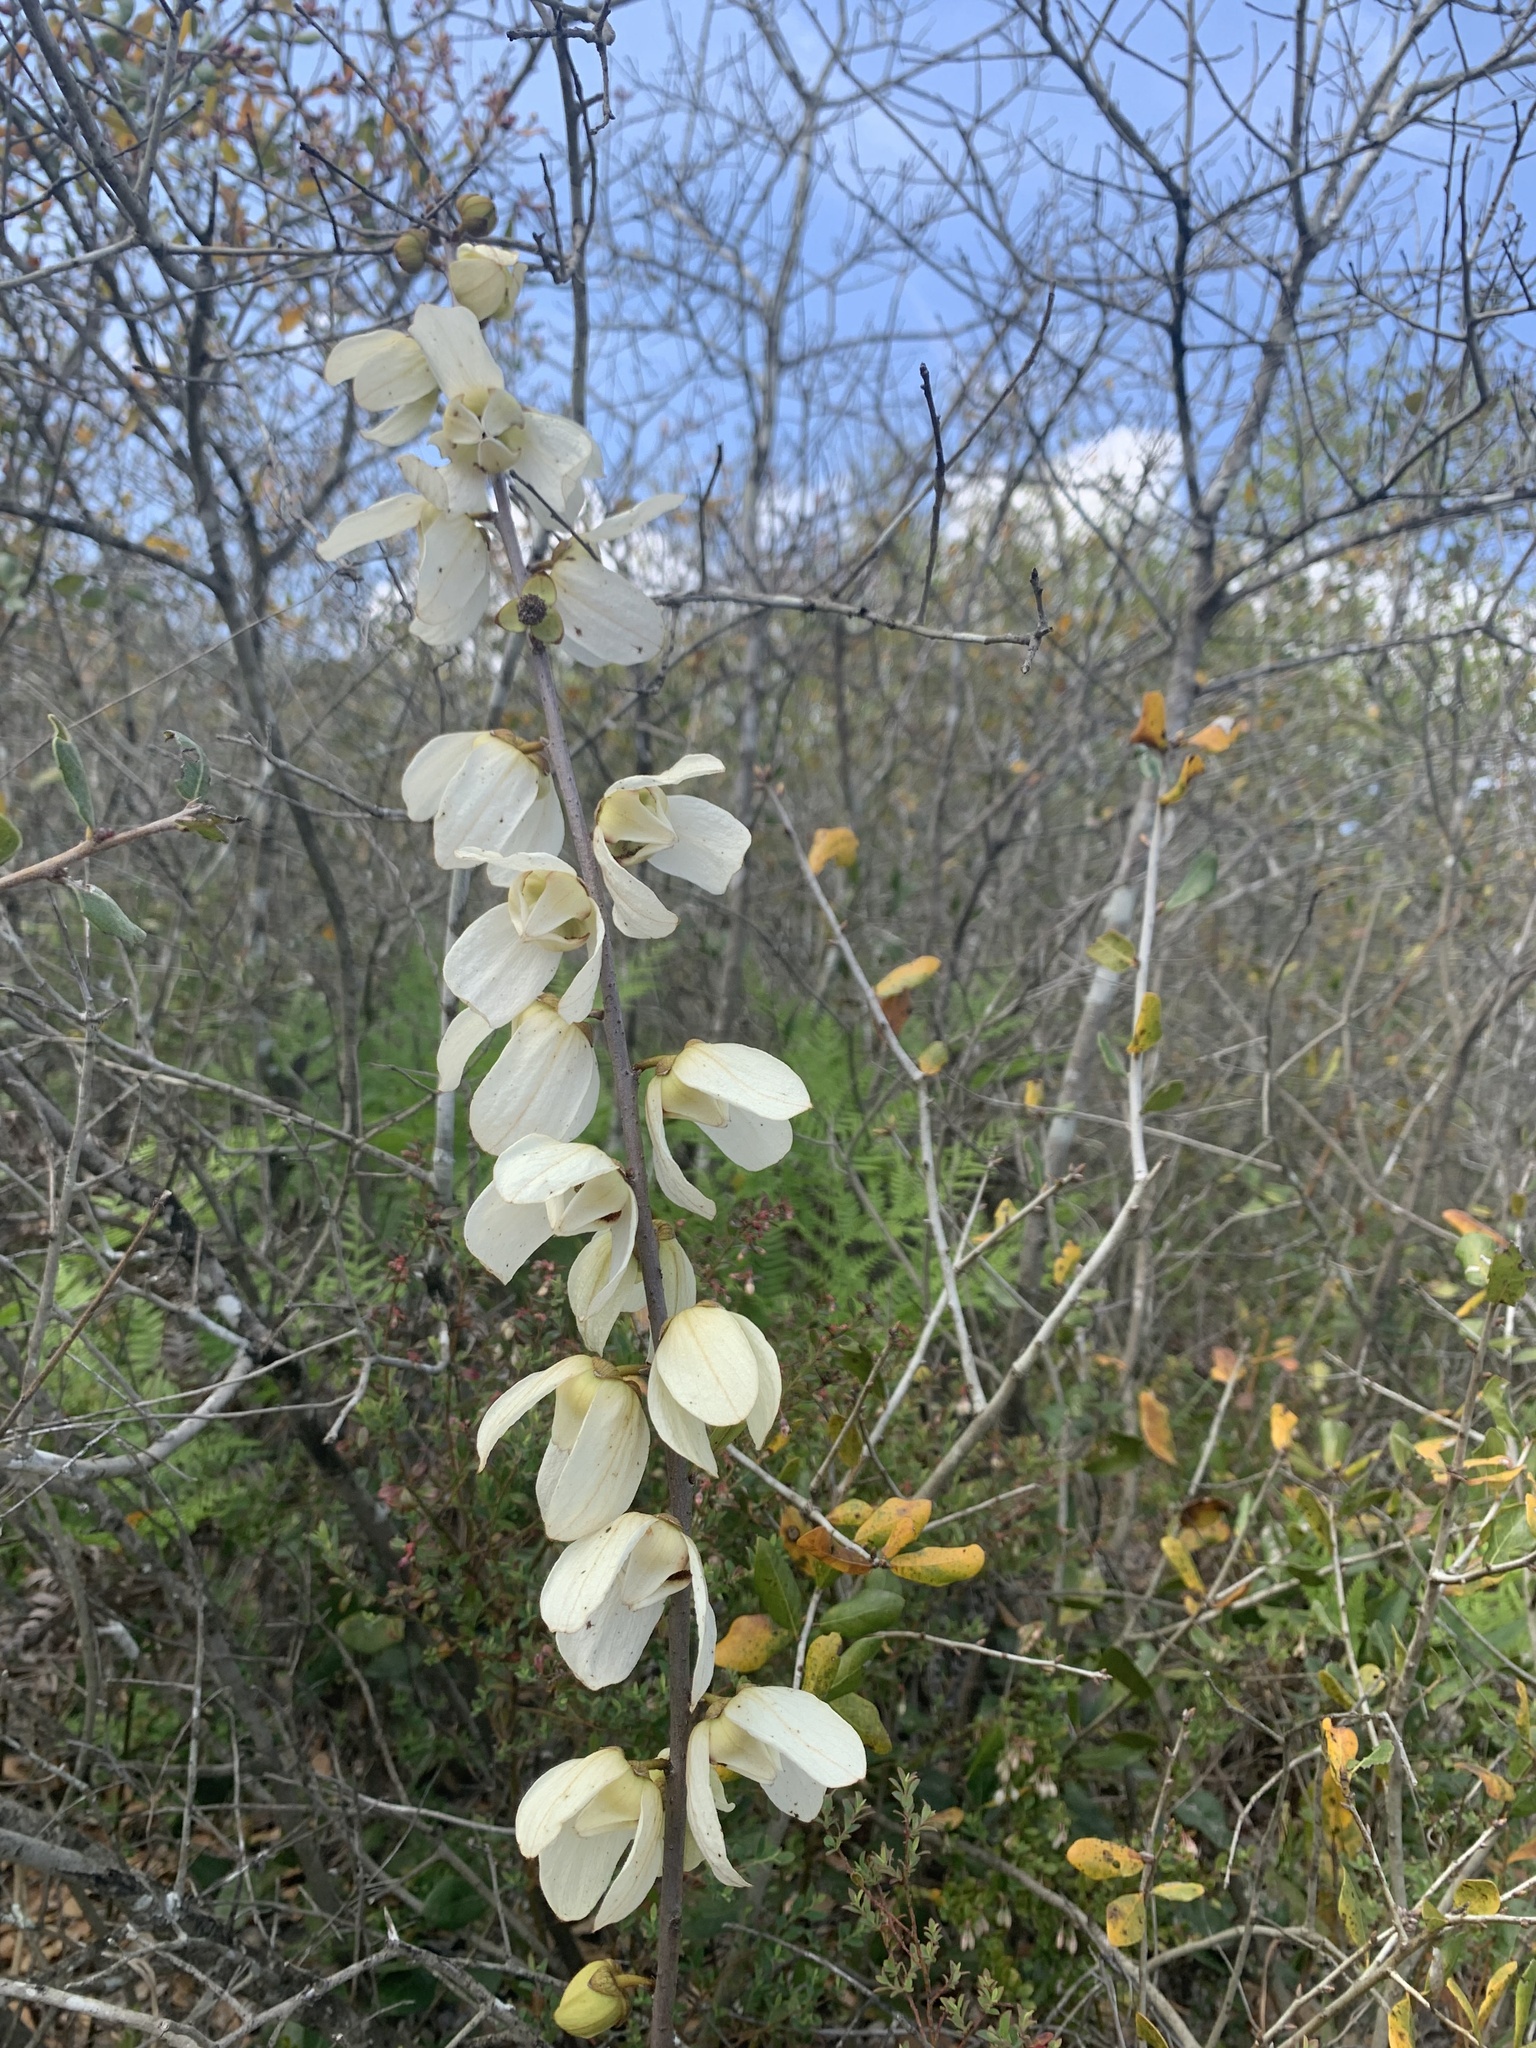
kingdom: Plantae
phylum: Tracheophyta
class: Magnoliopsida
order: Magnoliales
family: Annonaceae
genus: Asimina
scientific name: Asimina reticulata
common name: Flag pawpaw
